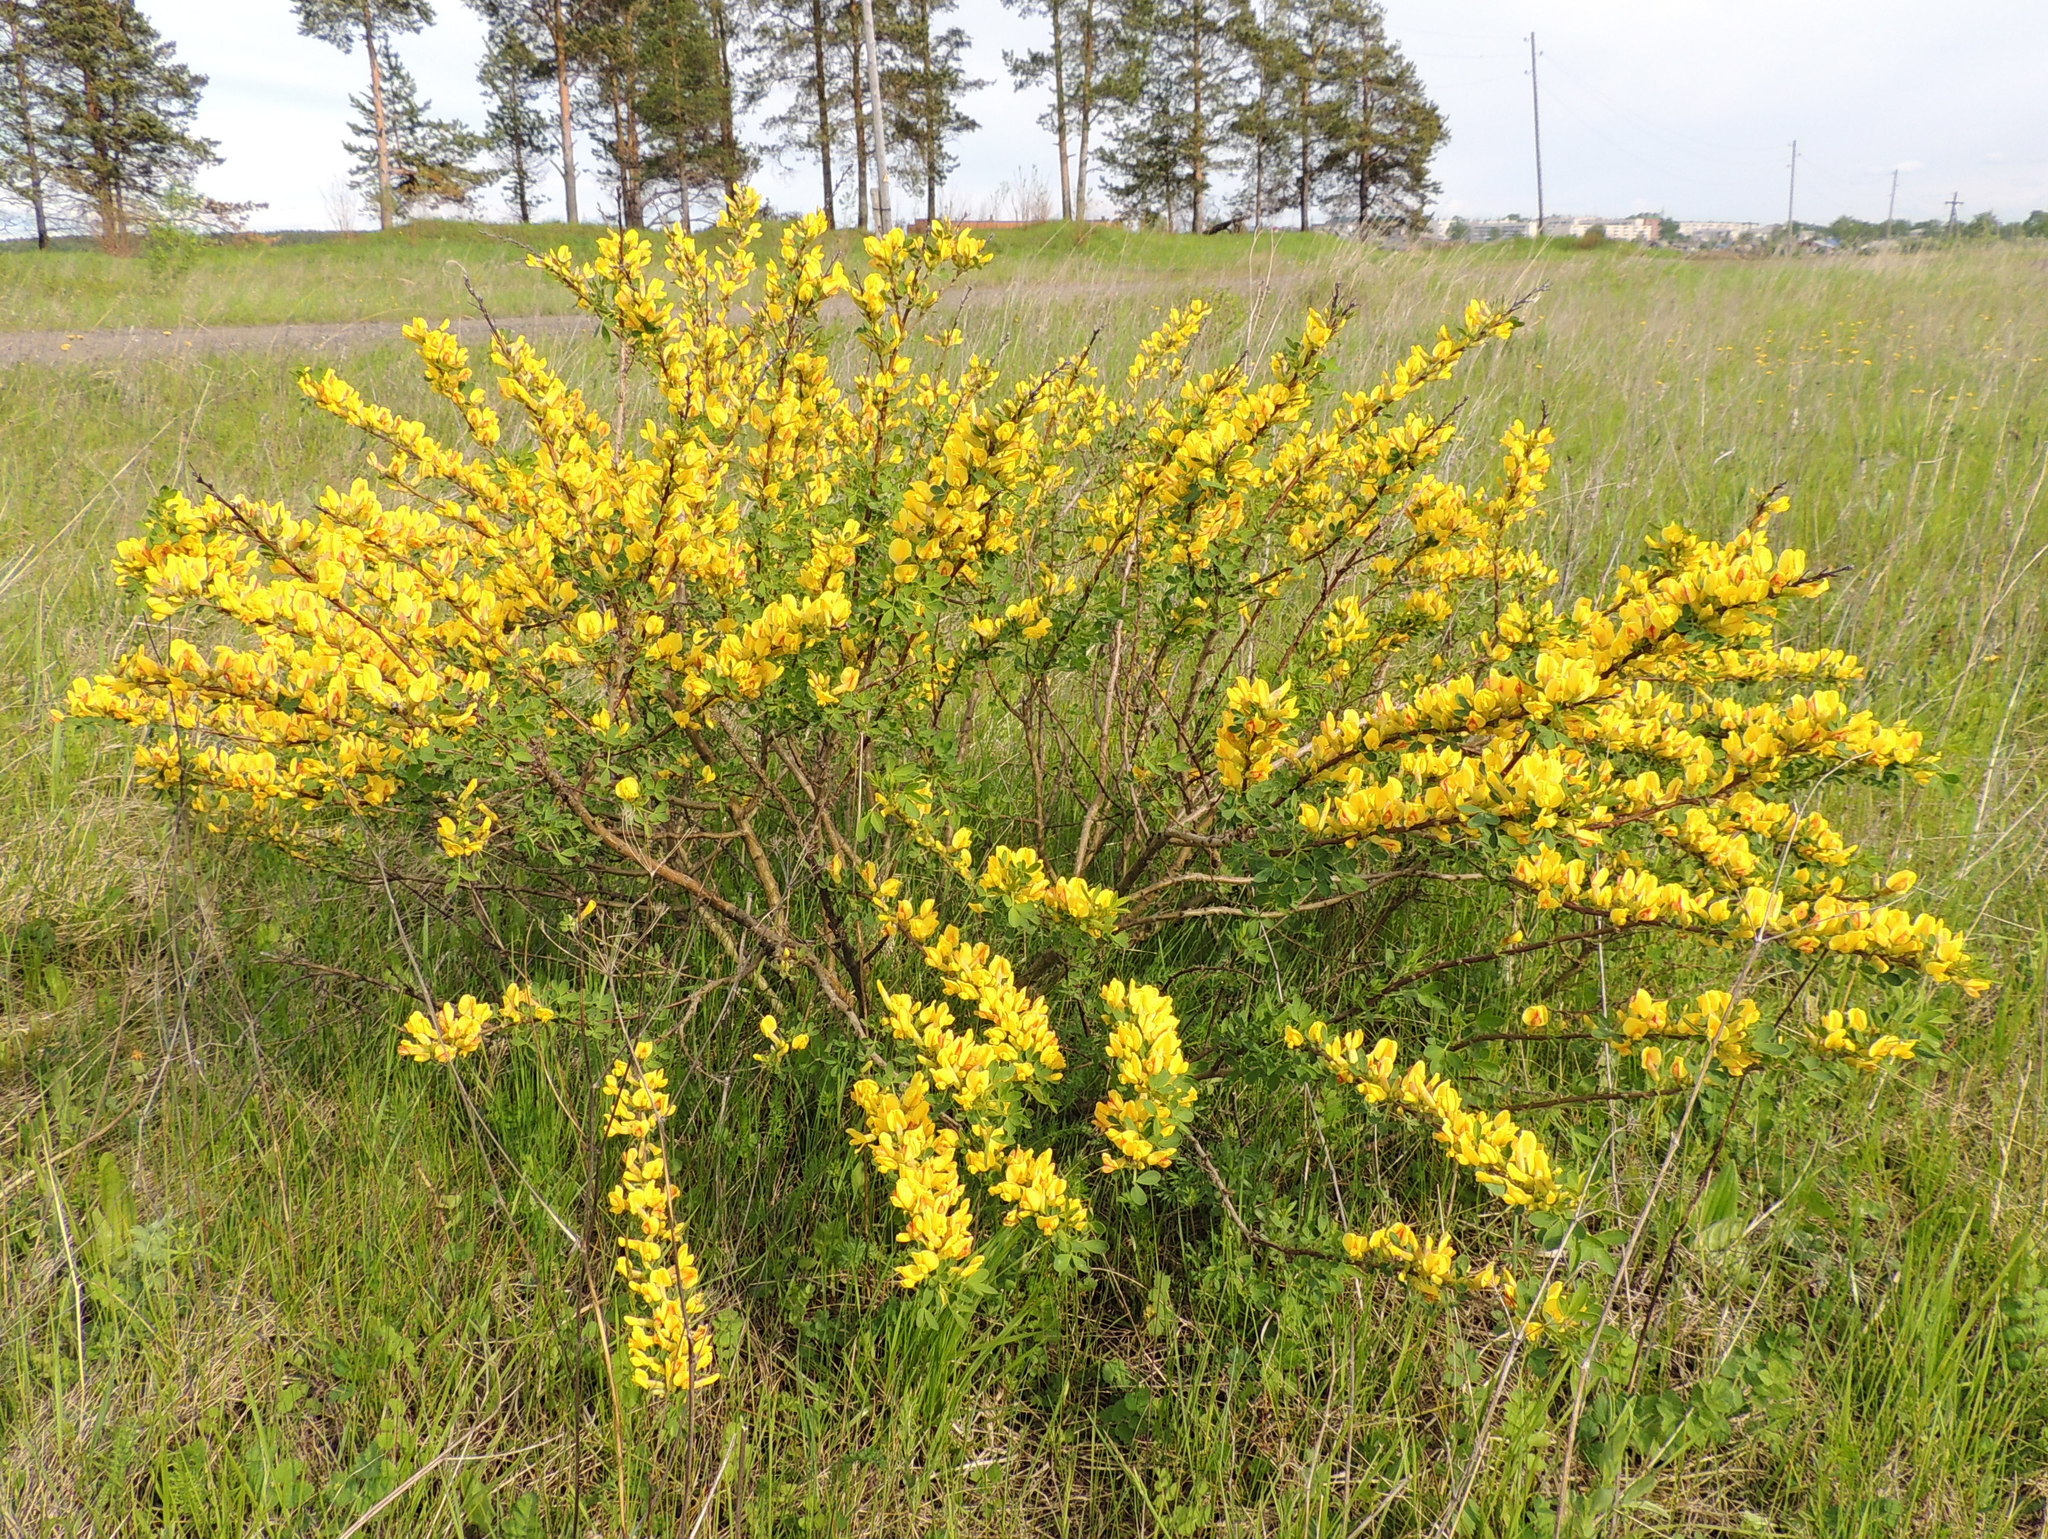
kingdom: Plantae
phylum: Tracheophyta
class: Magnoliopsida
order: Fabales
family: Fabaceae
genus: Chamaecytisus
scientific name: Chamaecytisus ruthenicus
